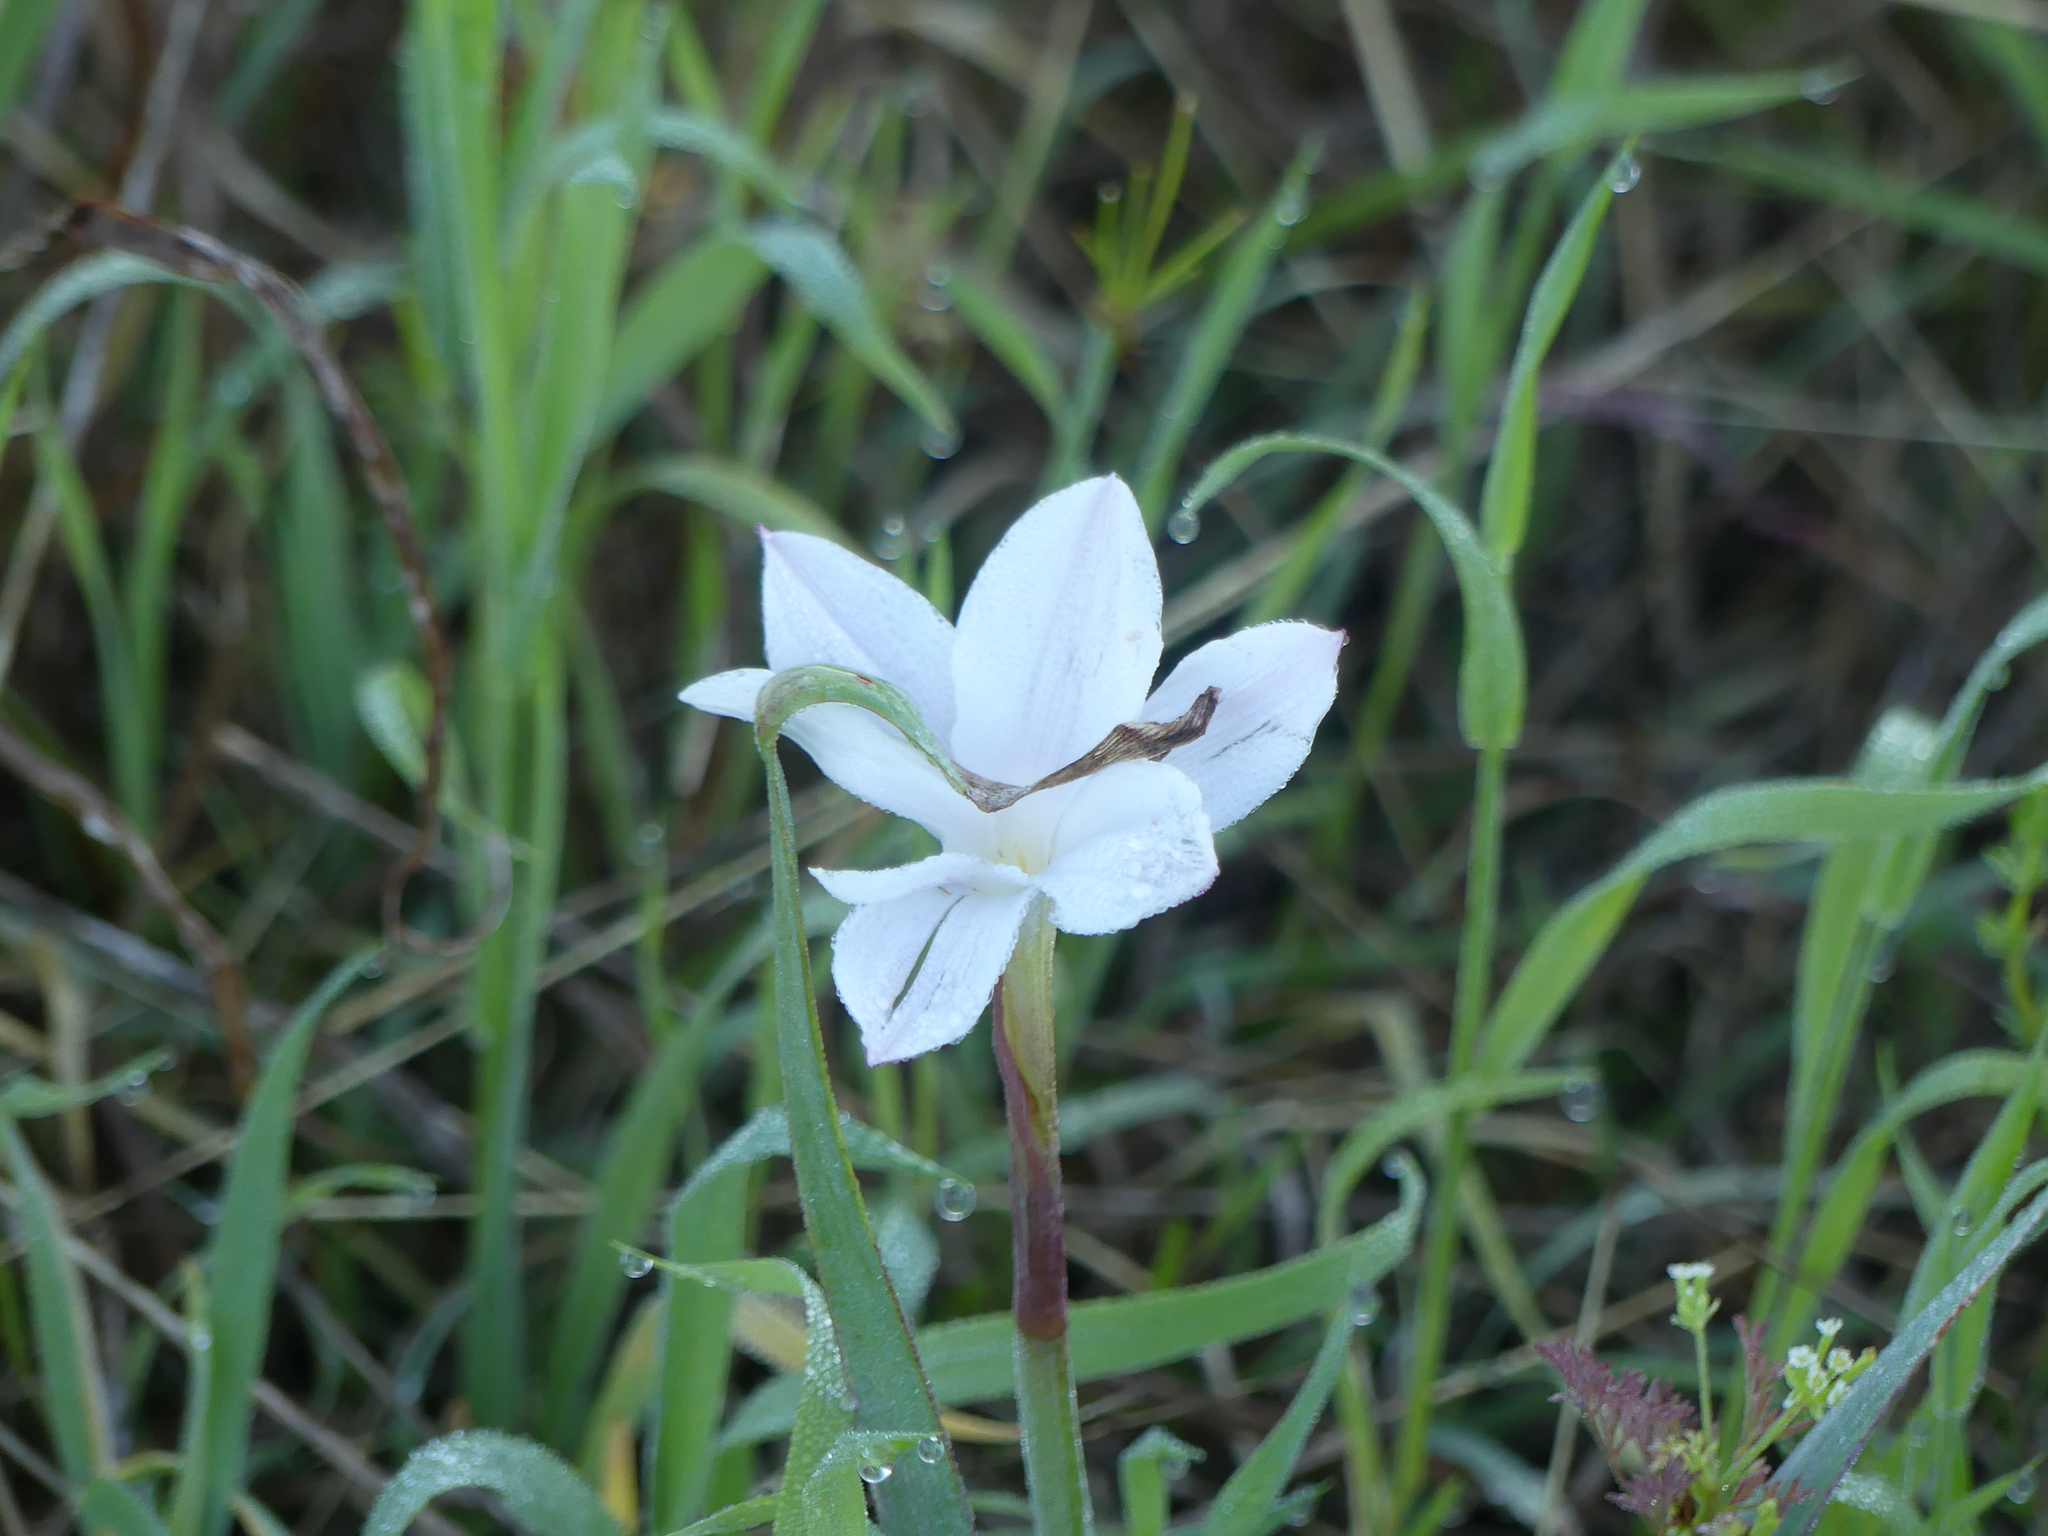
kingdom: Plantae
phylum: Tracheophyta
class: Liliopsida
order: Asparagales
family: Amaryllidaceae
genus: Zephyranthes
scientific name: Zephyranthes drummondii
